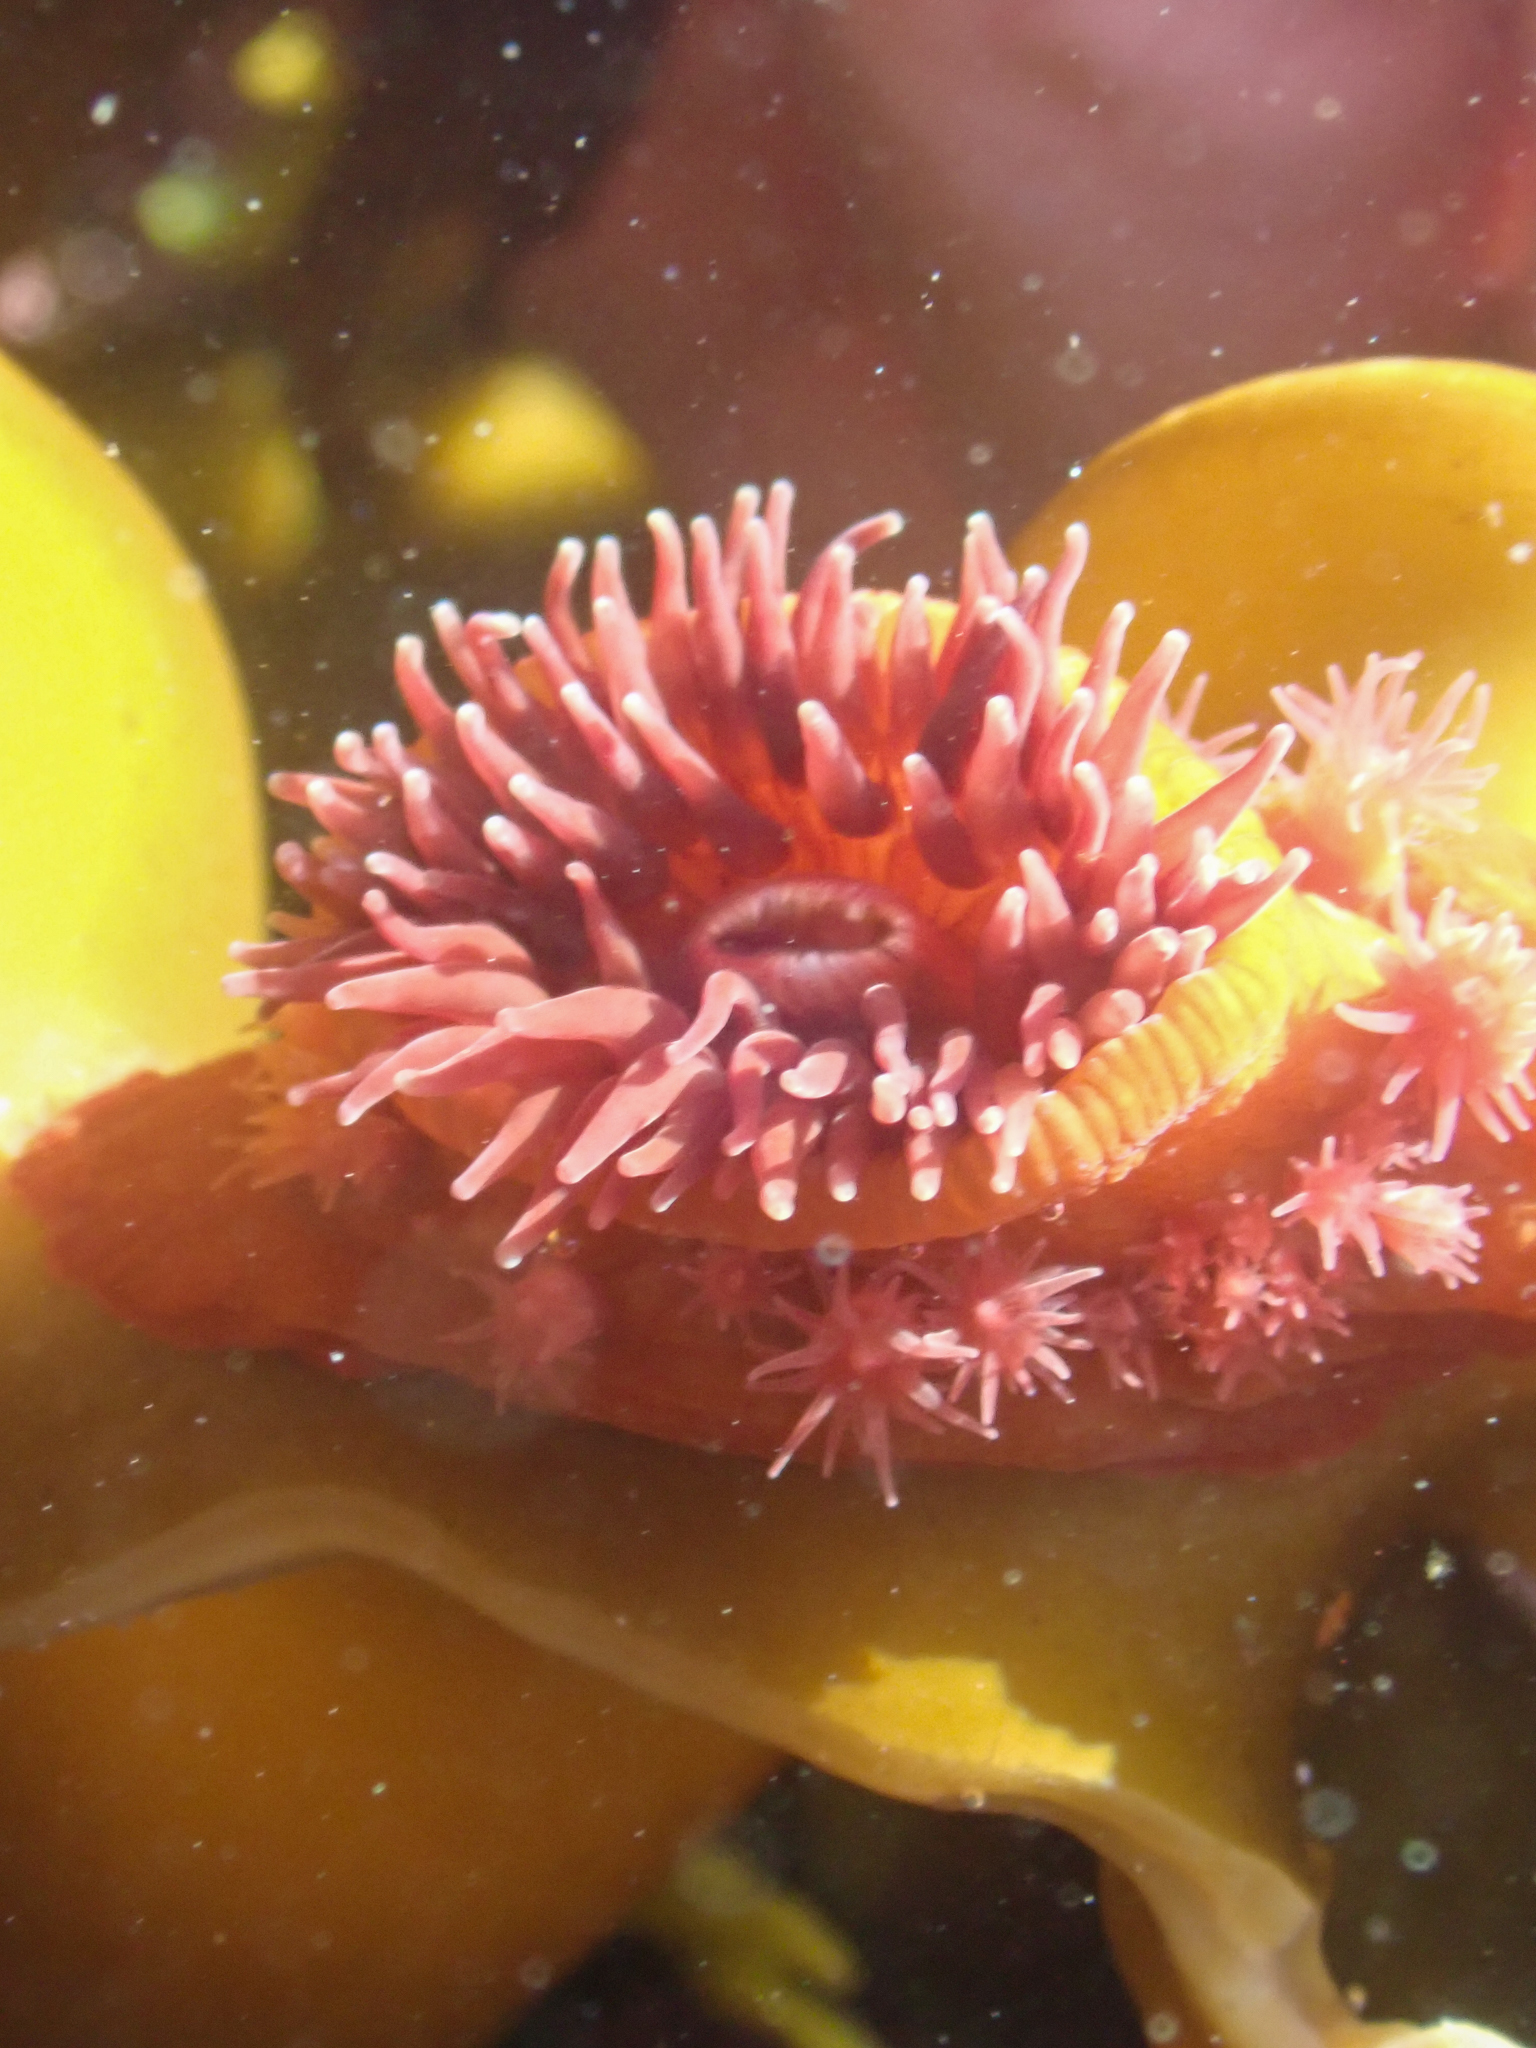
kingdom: Animalia
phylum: Cnidaria
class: Anthozoa
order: Actiniaria
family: Actiniidae
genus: Epiactis
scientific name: Epiactis prolifera
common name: Brooding anemone
